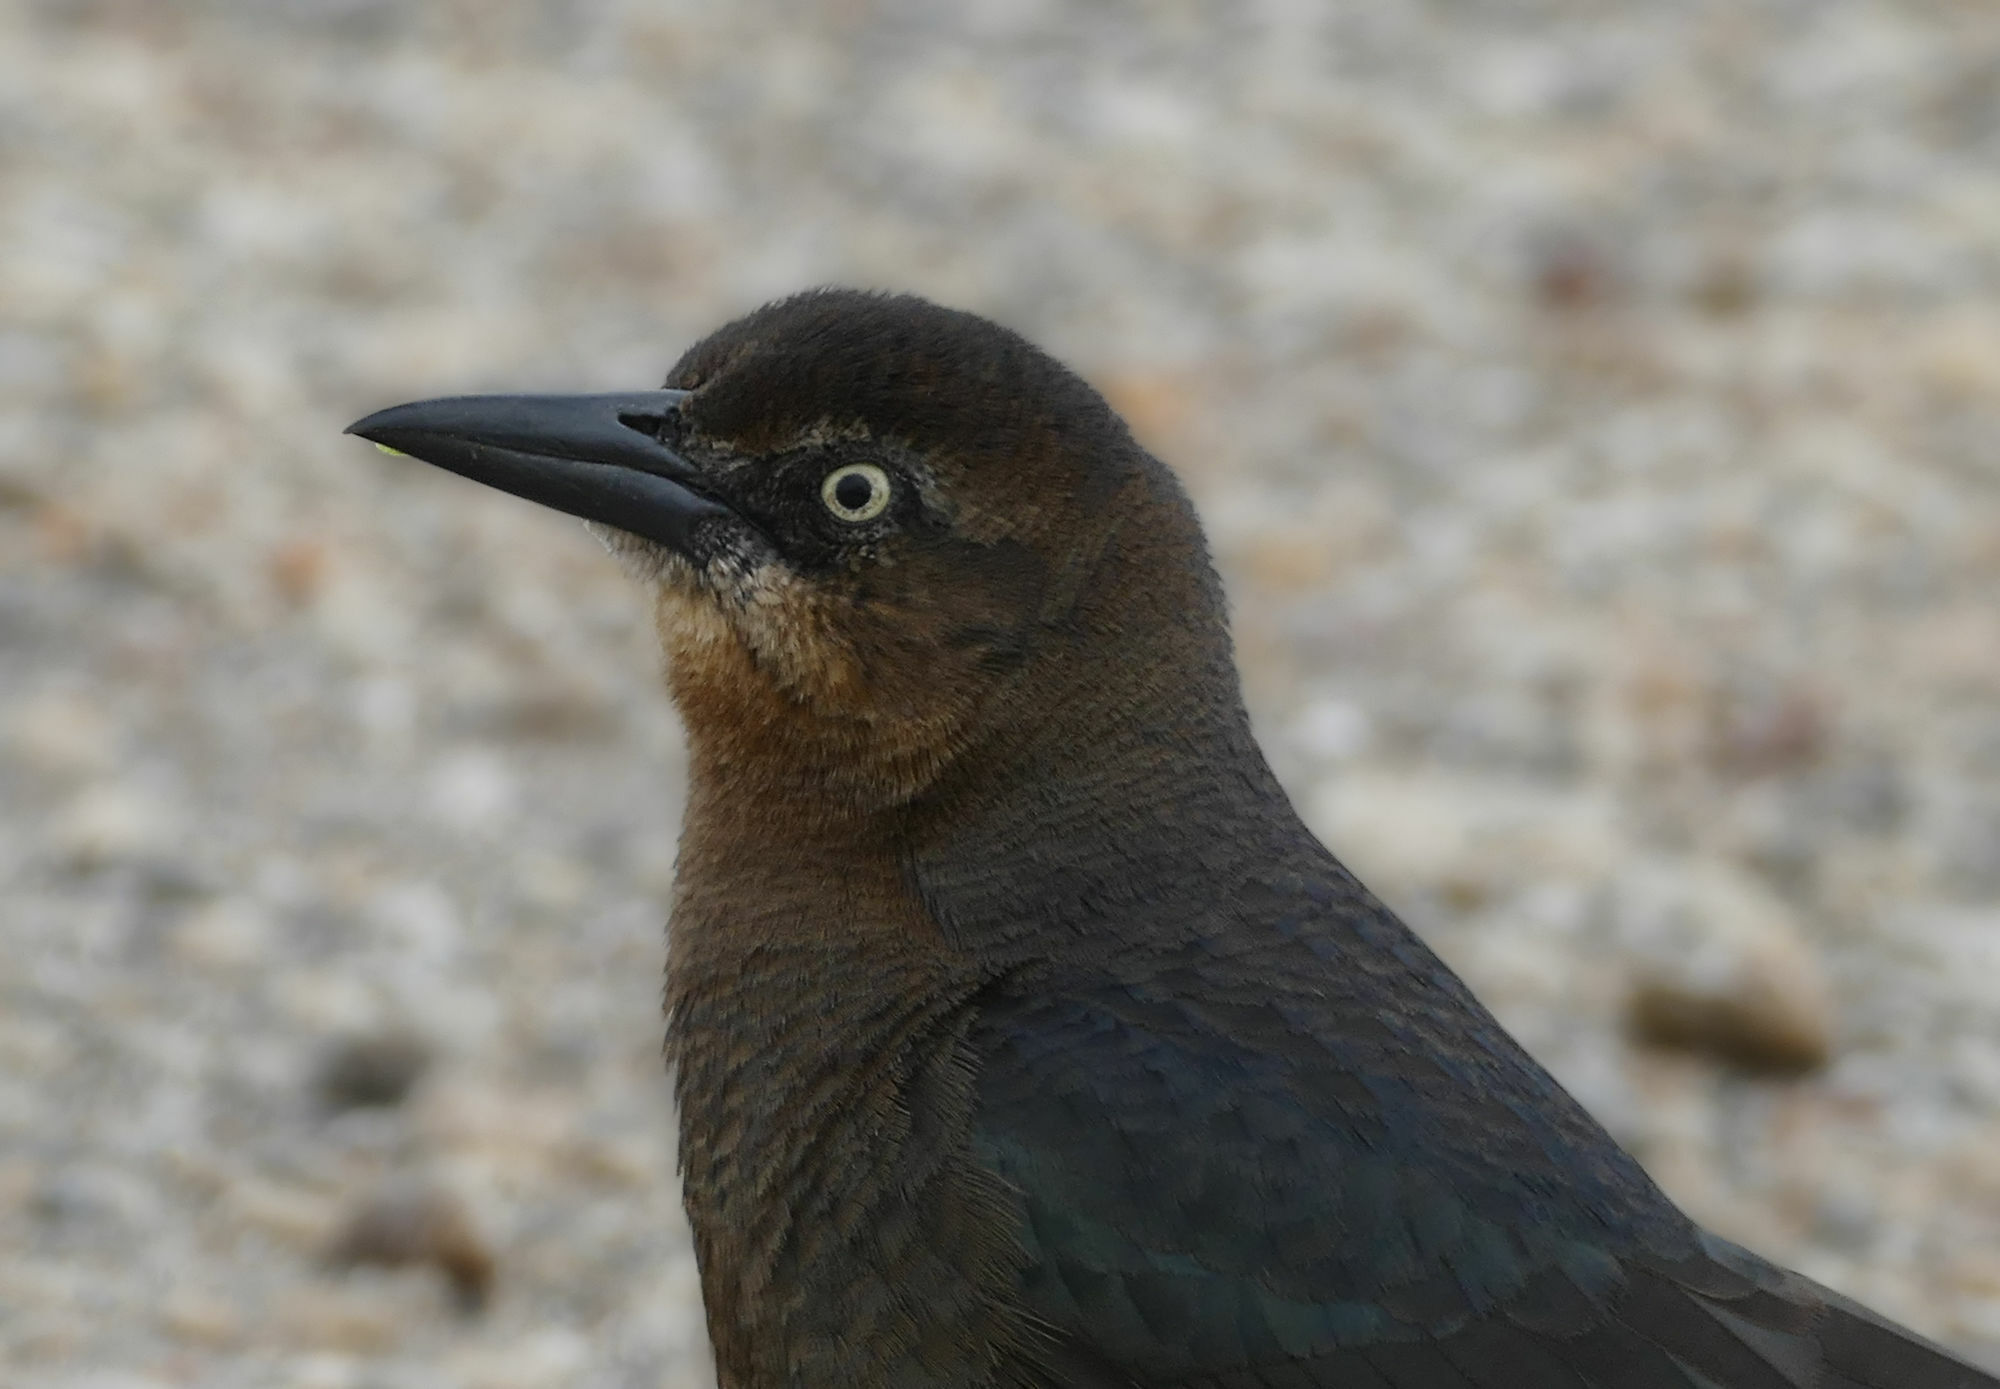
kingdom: Animalia
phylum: Chordata
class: Aves
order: Passeriformes
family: Icteridae
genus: Quiscalus
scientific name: Quiscalus mexicanus
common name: Great-tailed grackle
